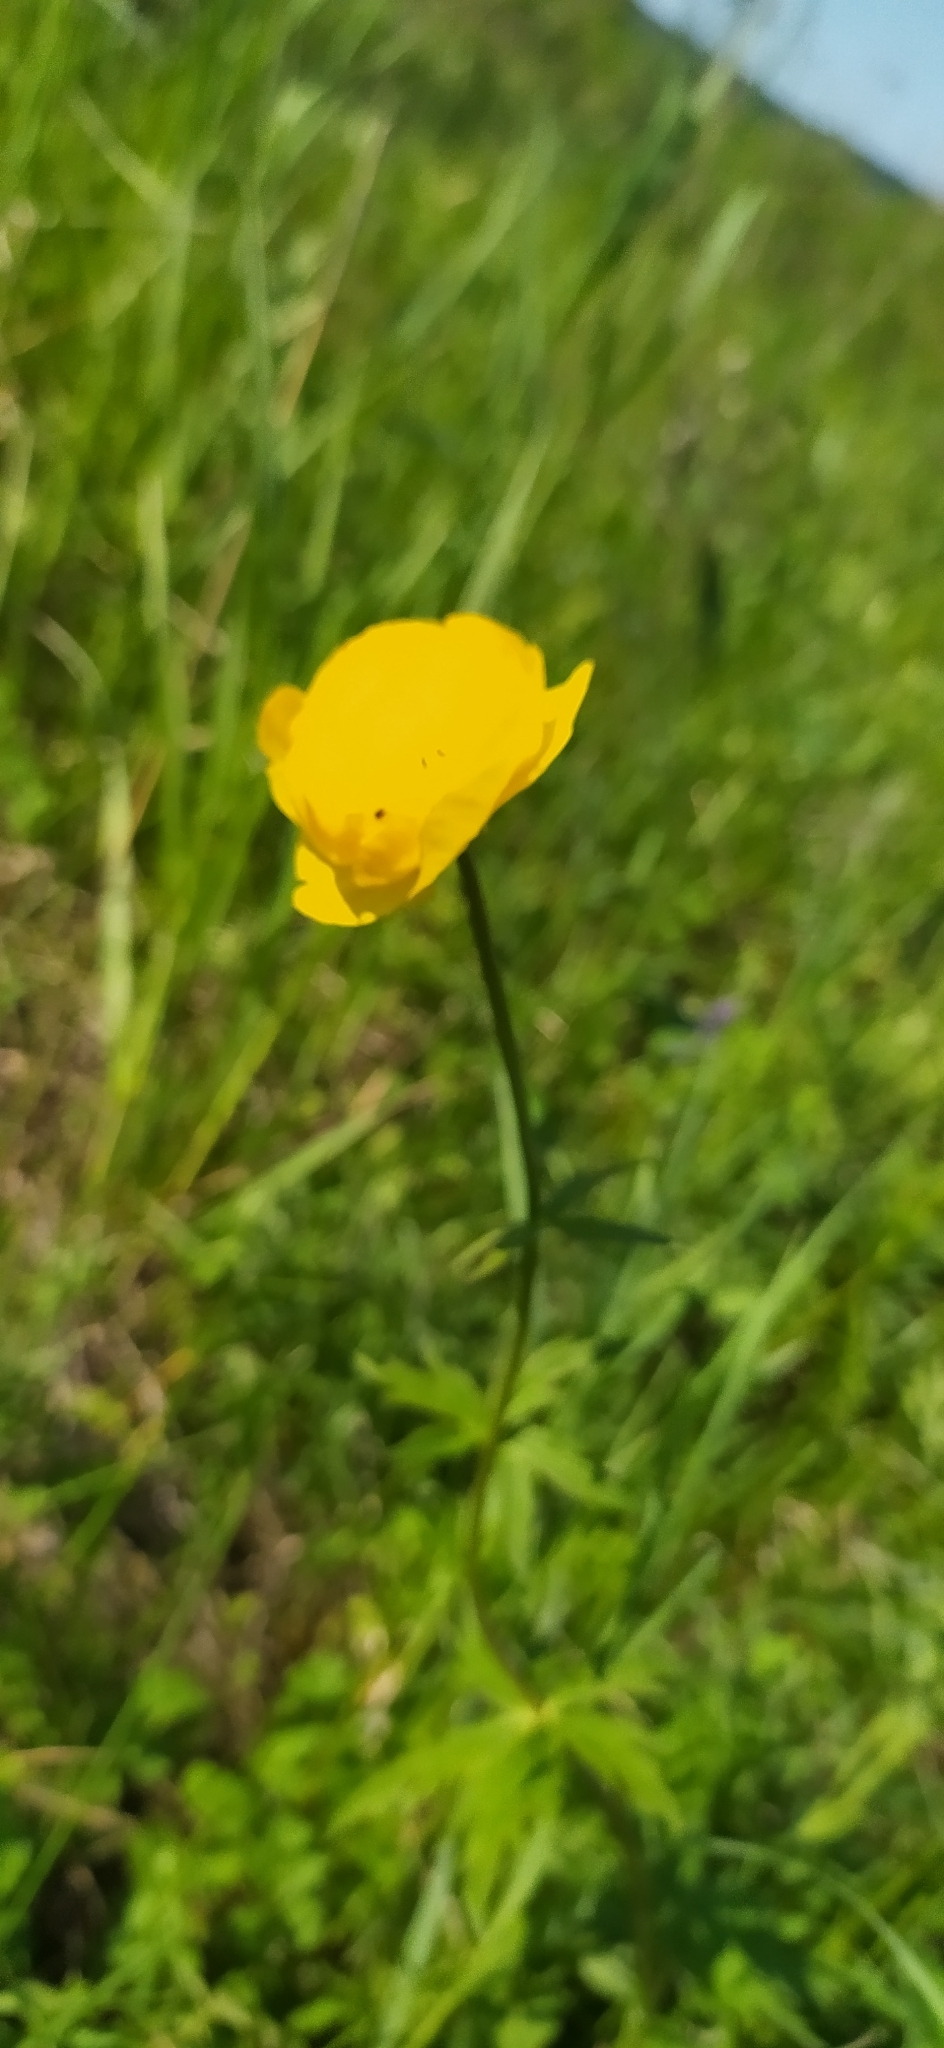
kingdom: Plantae
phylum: Tracheophyta
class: Magnoliopsida
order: Ranunculales
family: Ranunculaceae
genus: Trollius
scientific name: Trollius europaeus
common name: European globeflower
